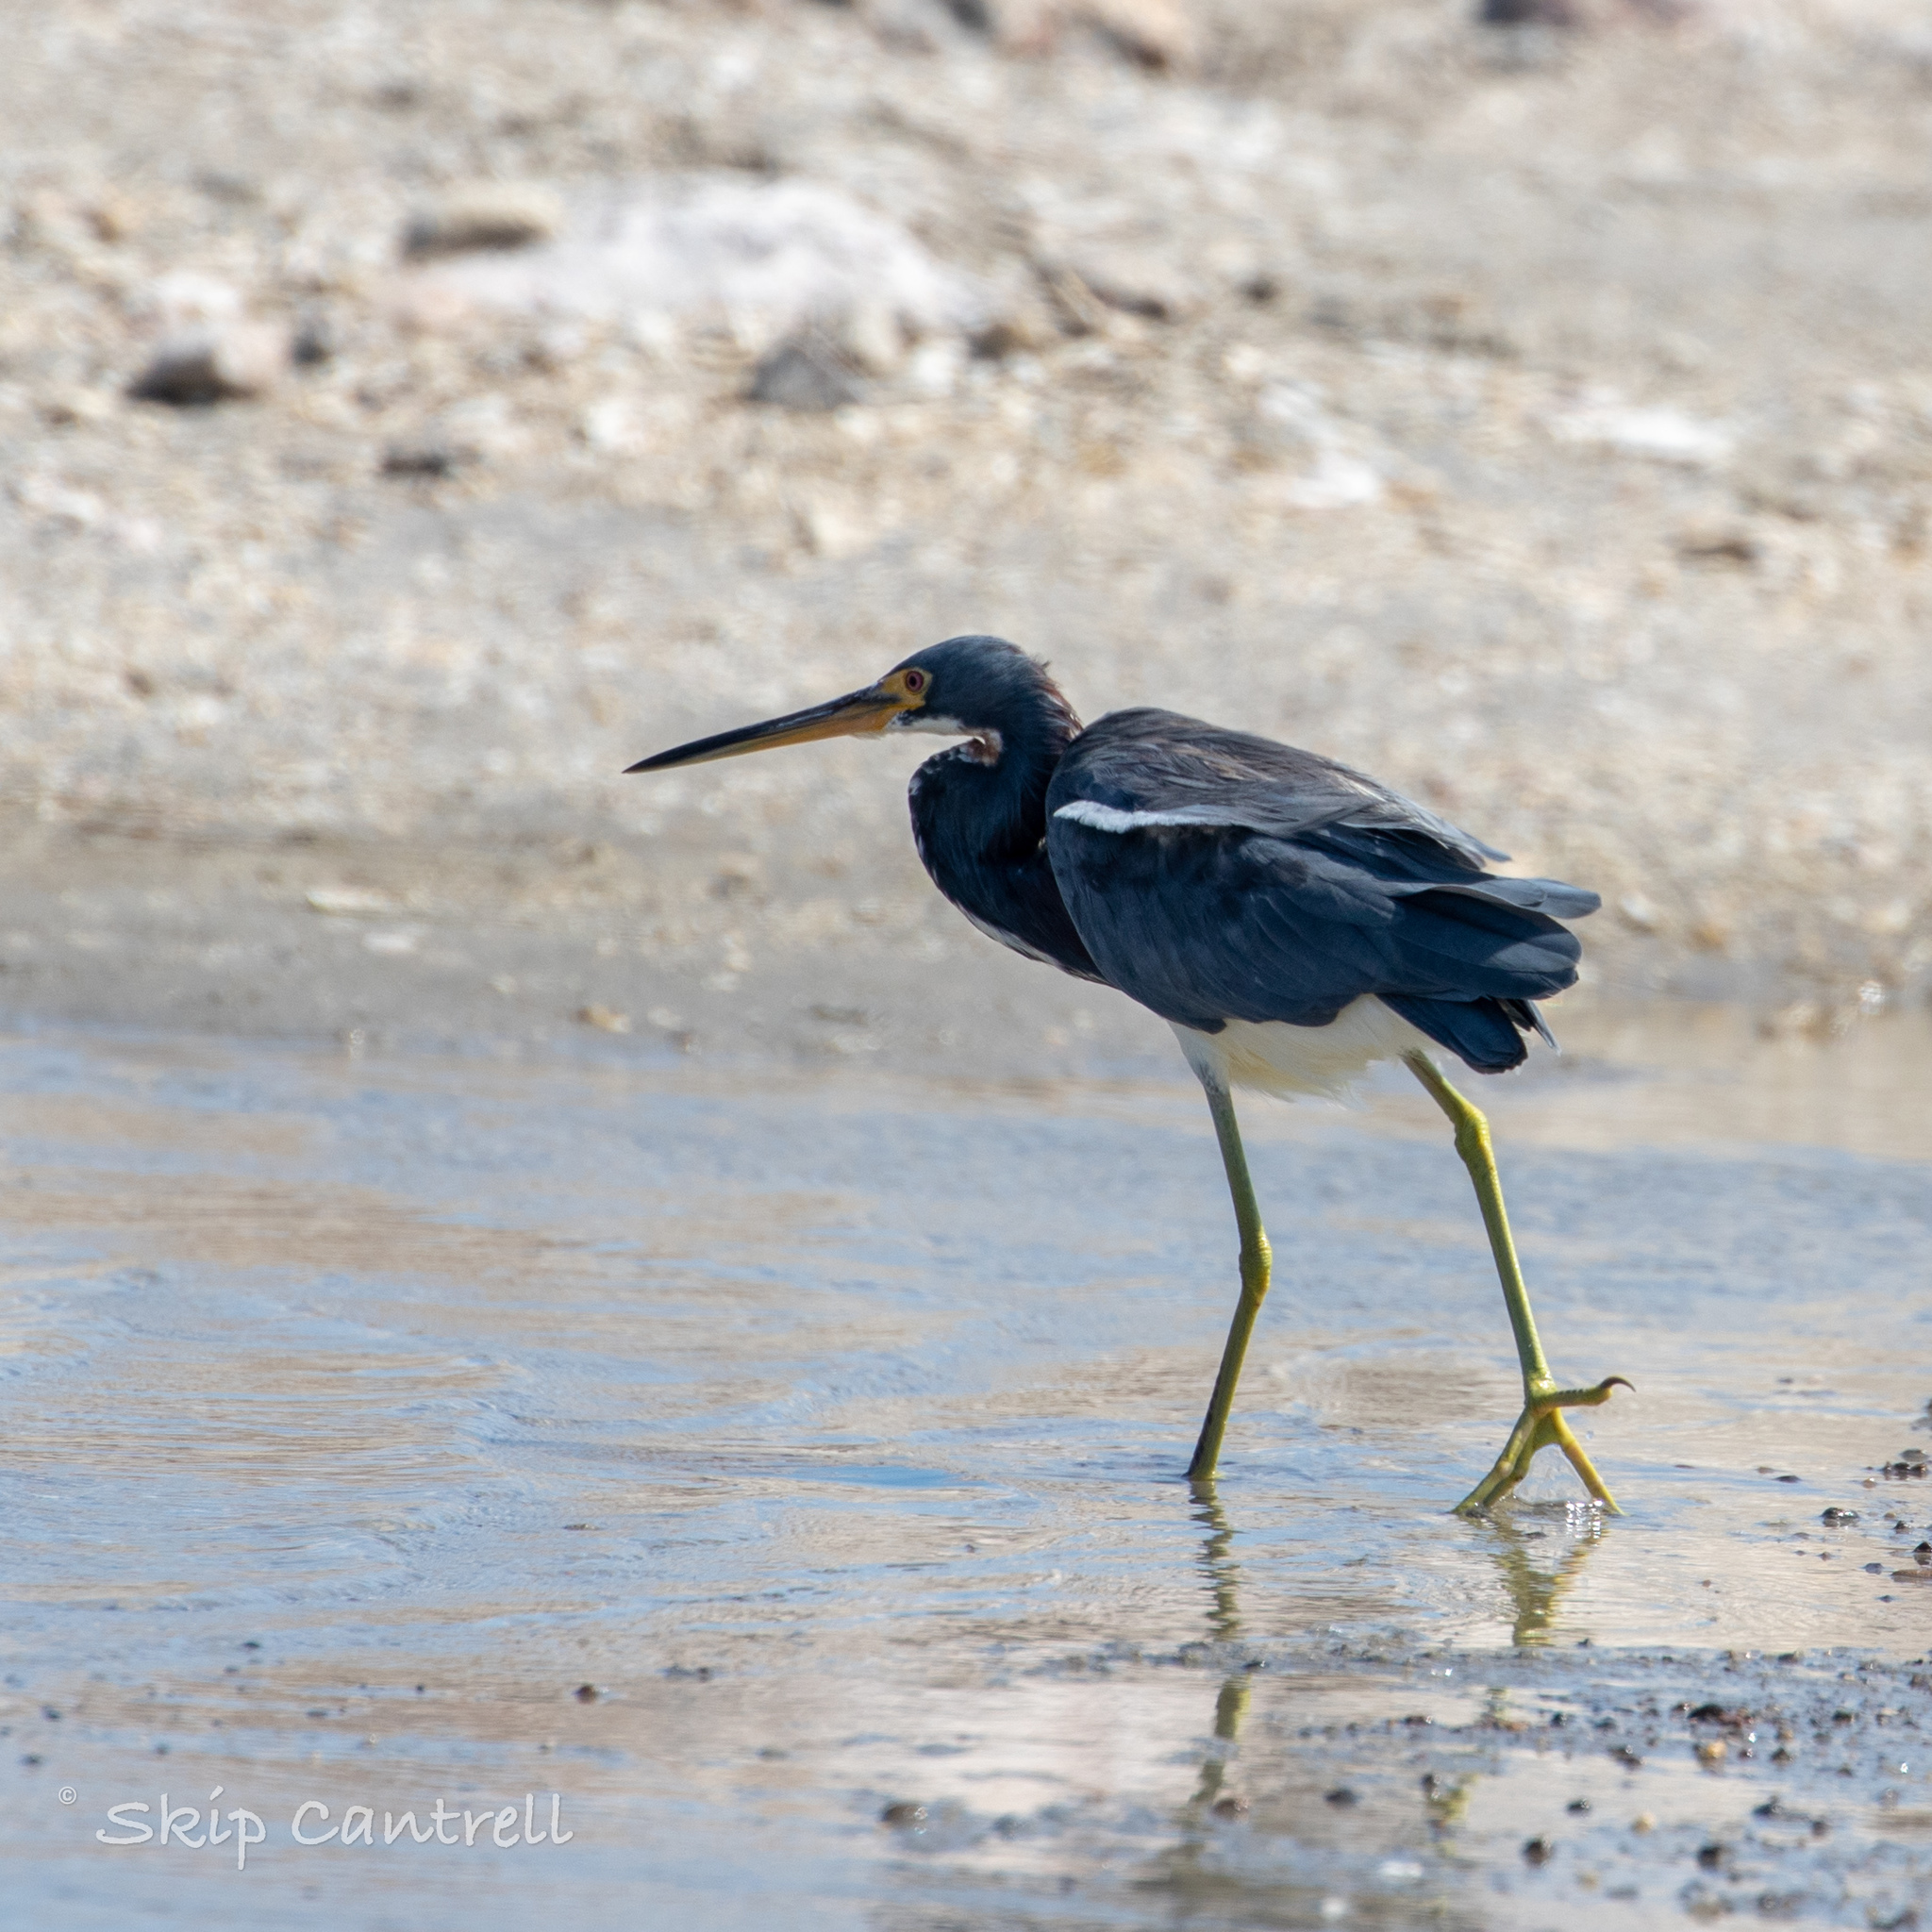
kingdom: Animalia
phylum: Chordata
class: Aves
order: Pelecaniformes
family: Ardeidae
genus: Egretta
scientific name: Egretta tricolor
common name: Tricolored heron
